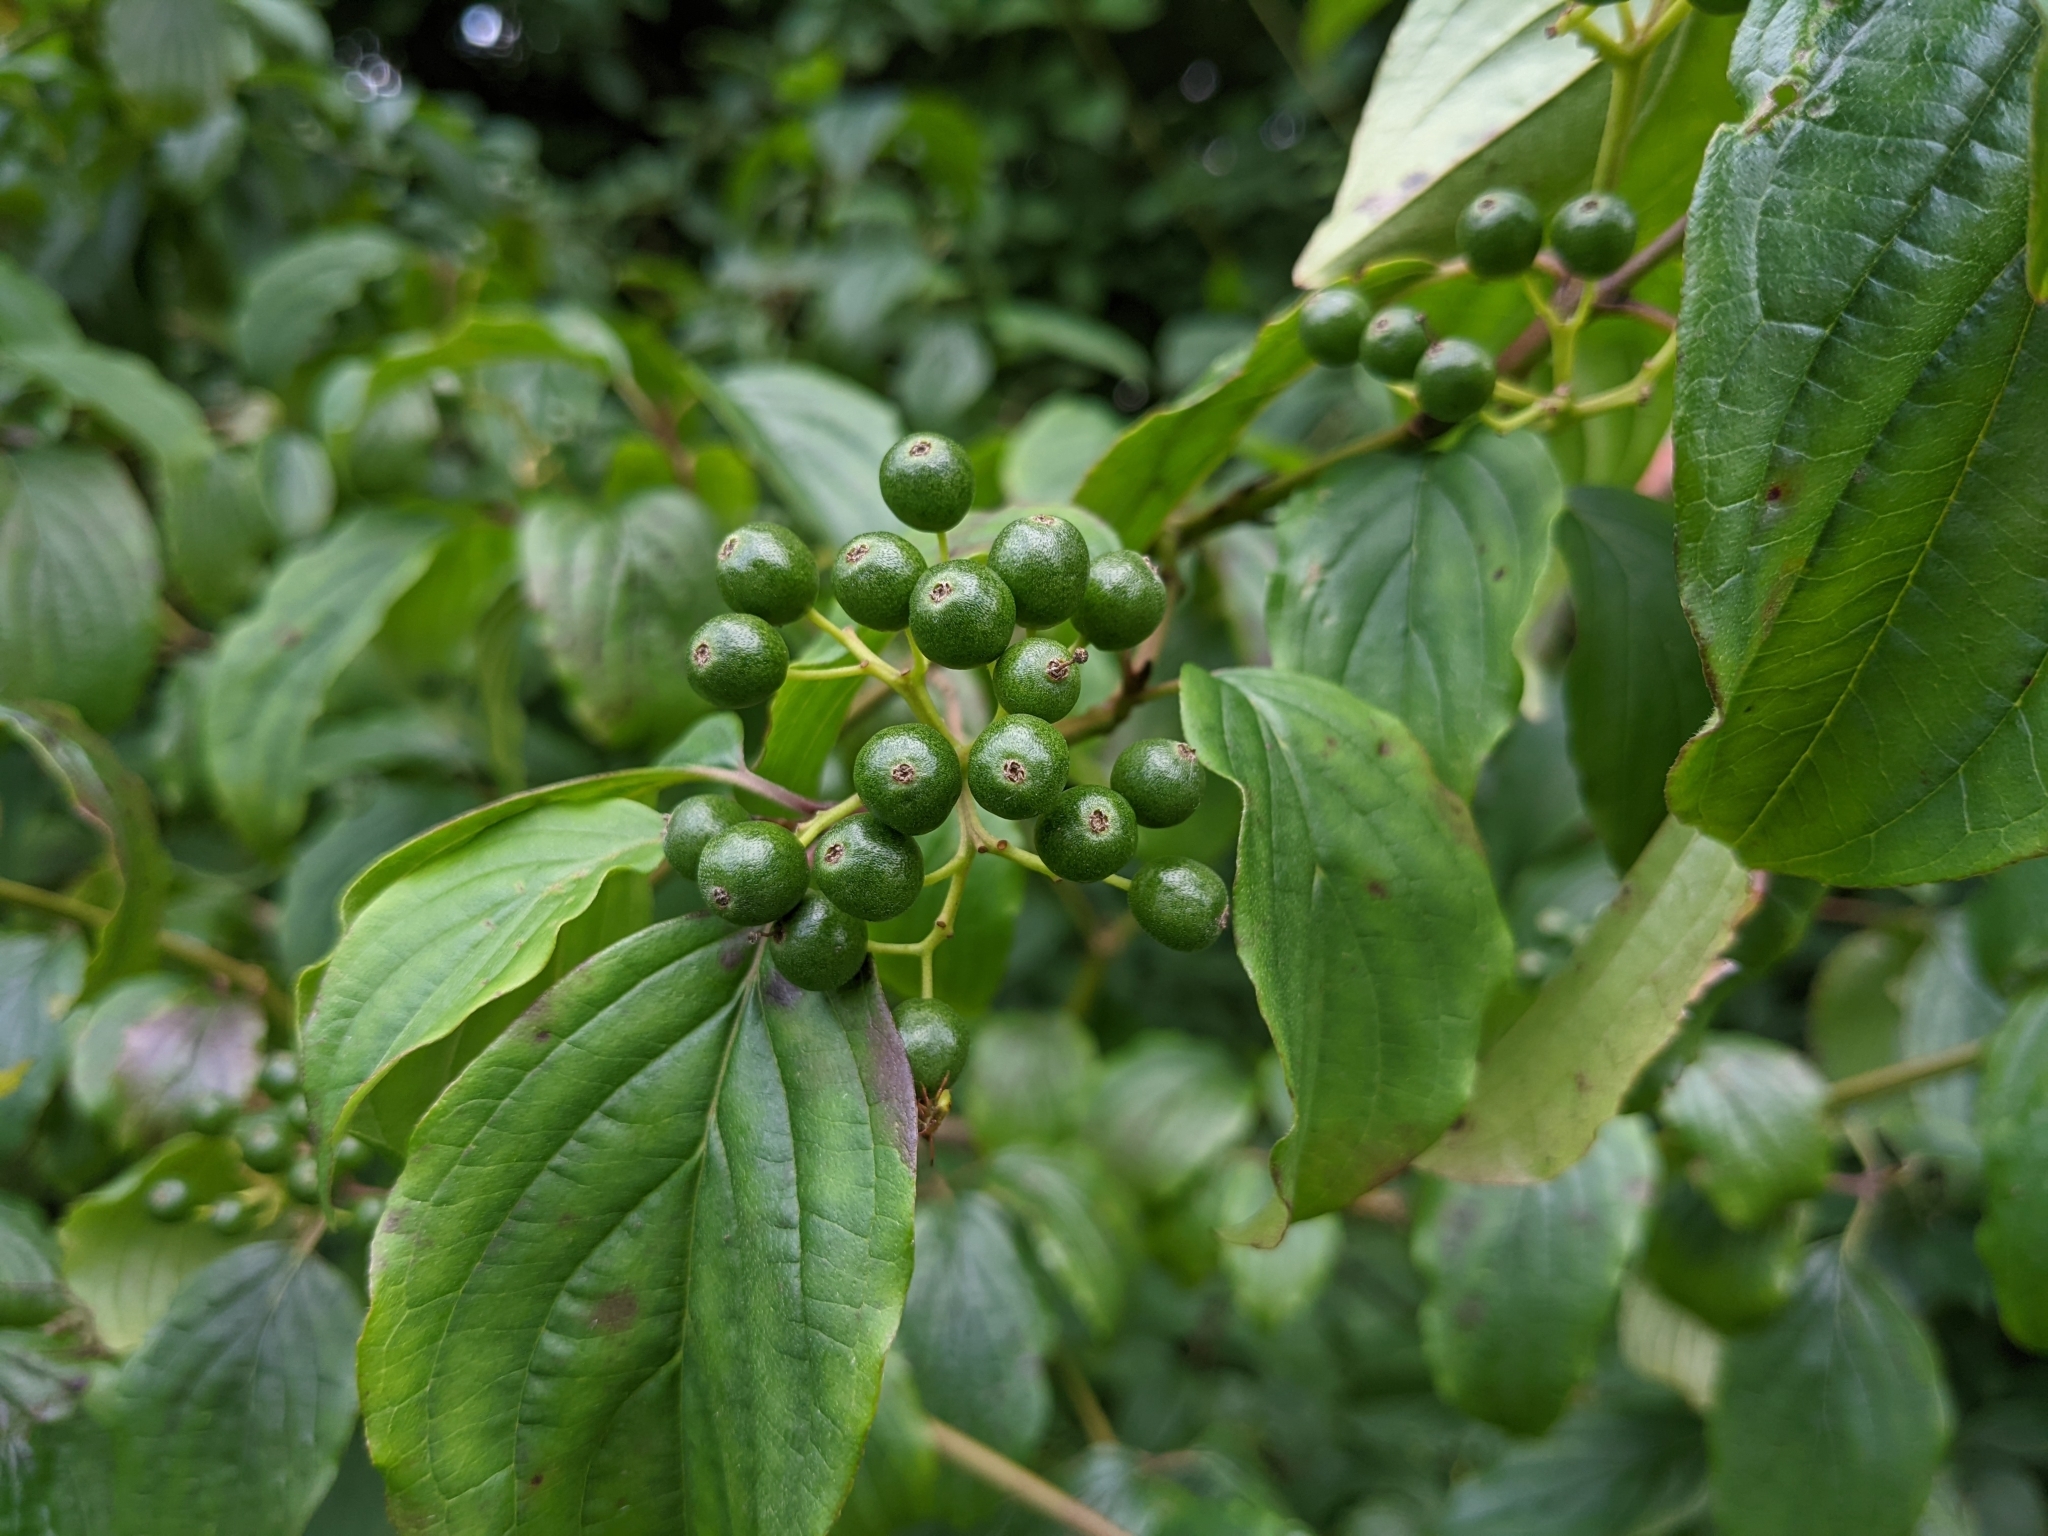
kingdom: Plantae
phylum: Tracheophyta
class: Magnoliopsida
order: Cornales
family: Cornaceae
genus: Cornus
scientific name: Cornus sanguinea
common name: Dogwood
